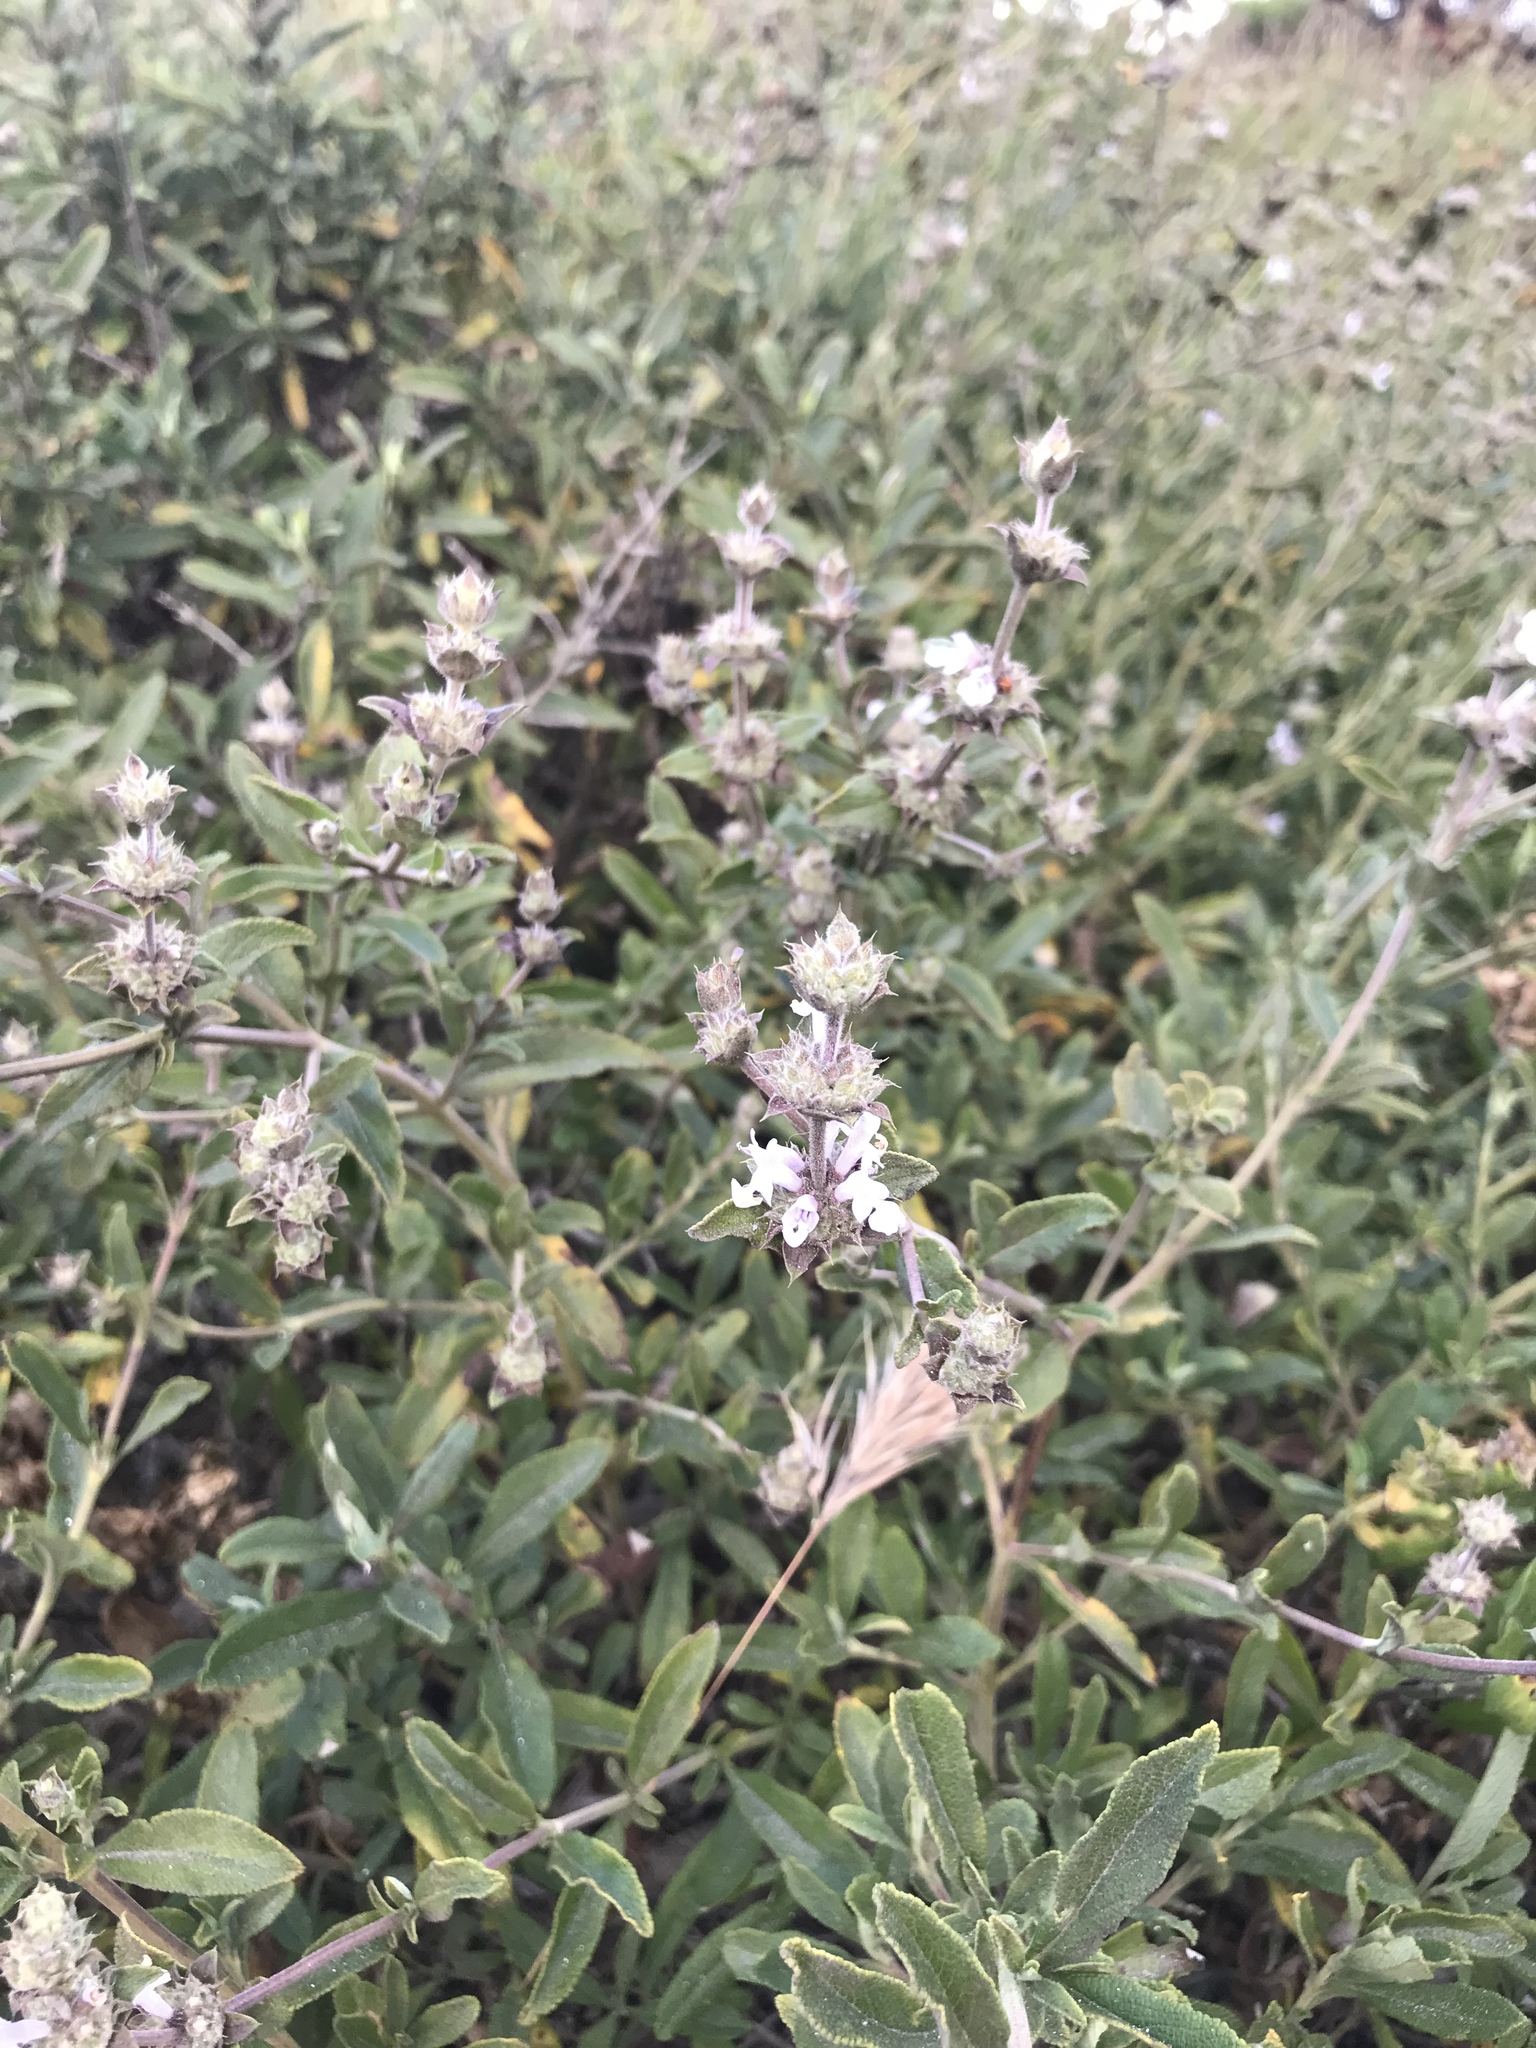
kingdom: Plantae
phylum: Tracheophyta
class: Magnoliopsida
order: Lamiales
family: Lamiaceae
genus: Salvia
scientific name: Salvia mellifera
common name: Black sage
